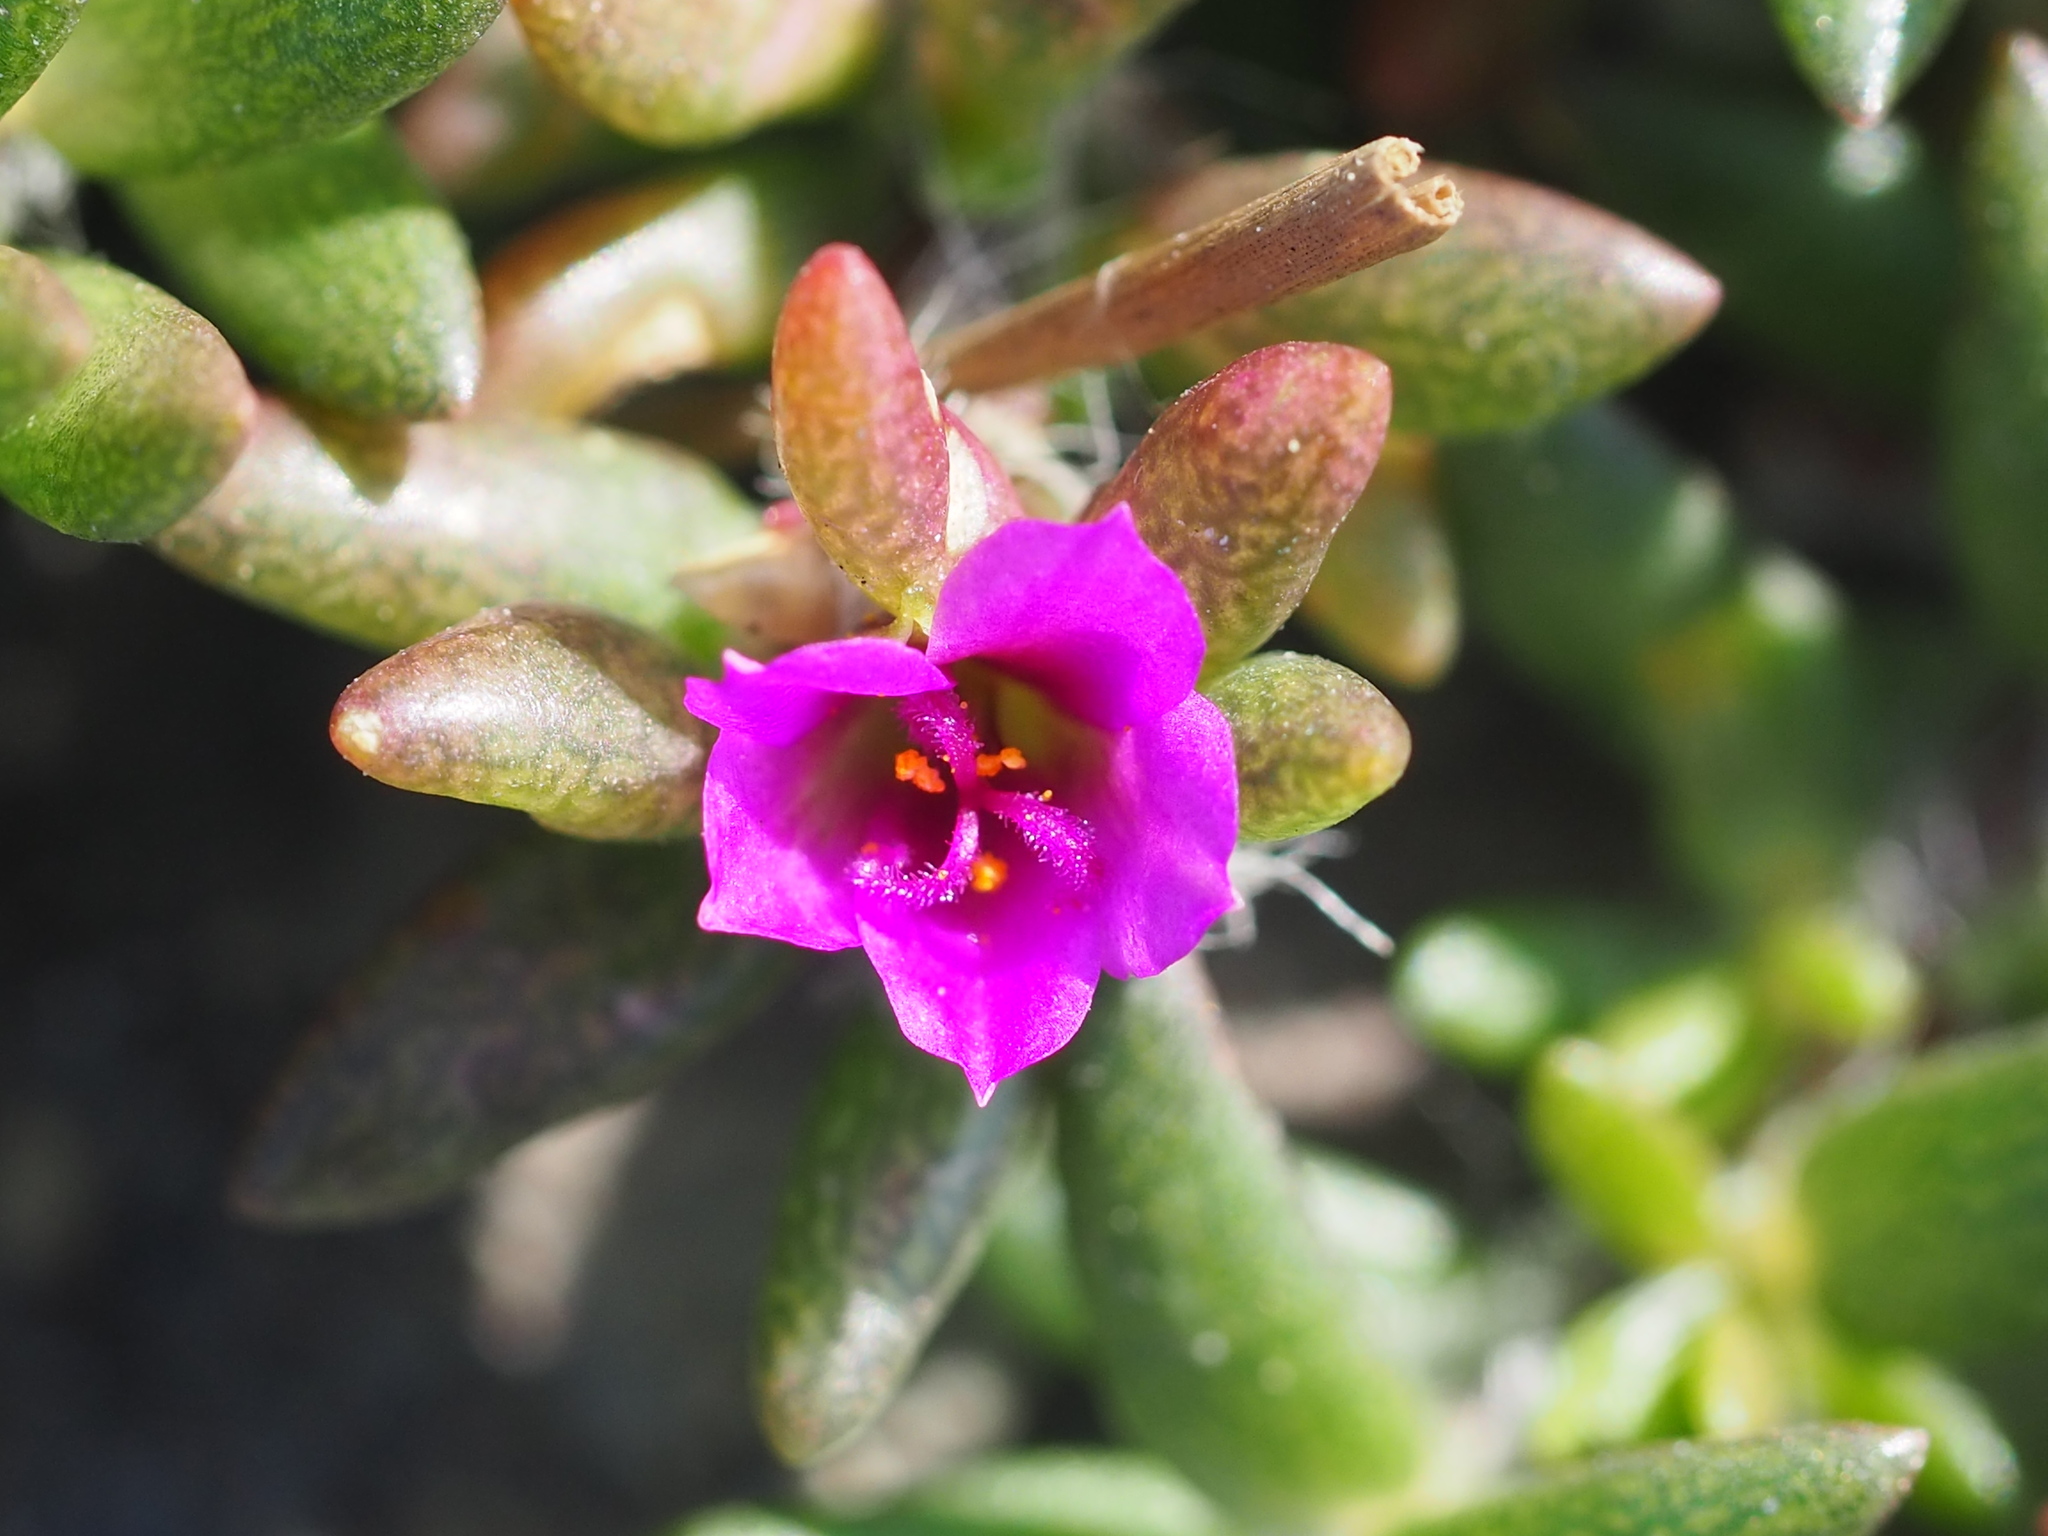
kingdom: Plantae
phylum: Tracheophyta
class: Magnoliopsida
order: Caryophyllales
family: Portulacaceae
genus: Portulaca
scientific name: Portulaca pilosa
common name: Kiss me quick
